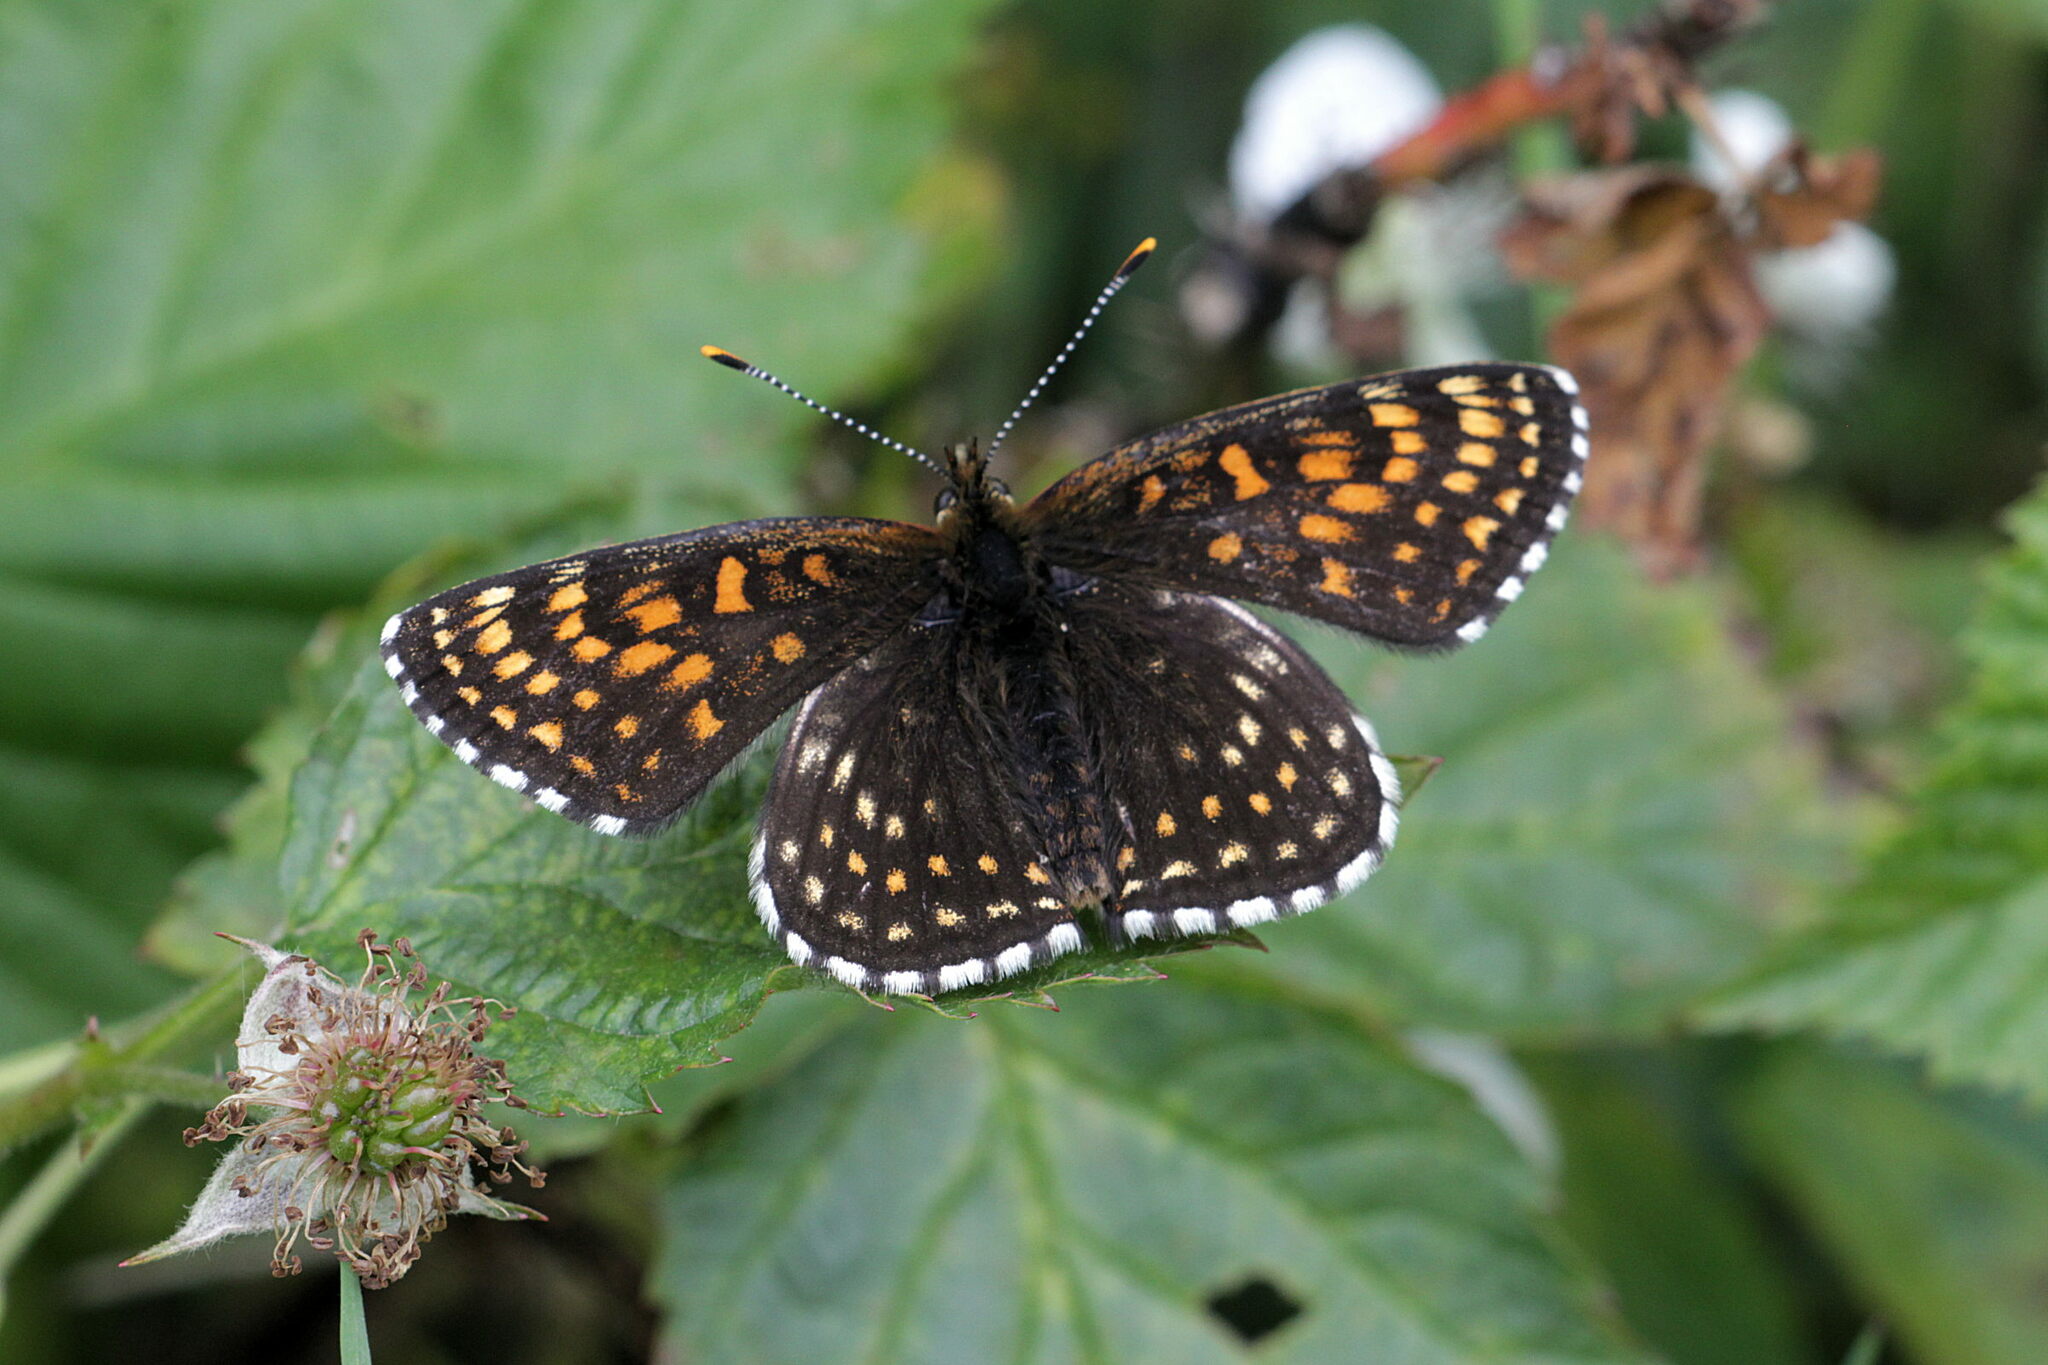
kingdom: Animalia
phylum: Arthropoda
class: Insecta
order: Lepidoptera
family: Nymphalidae
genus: Melitaea
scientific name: Melitaea diamina
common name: False heath fritillary
